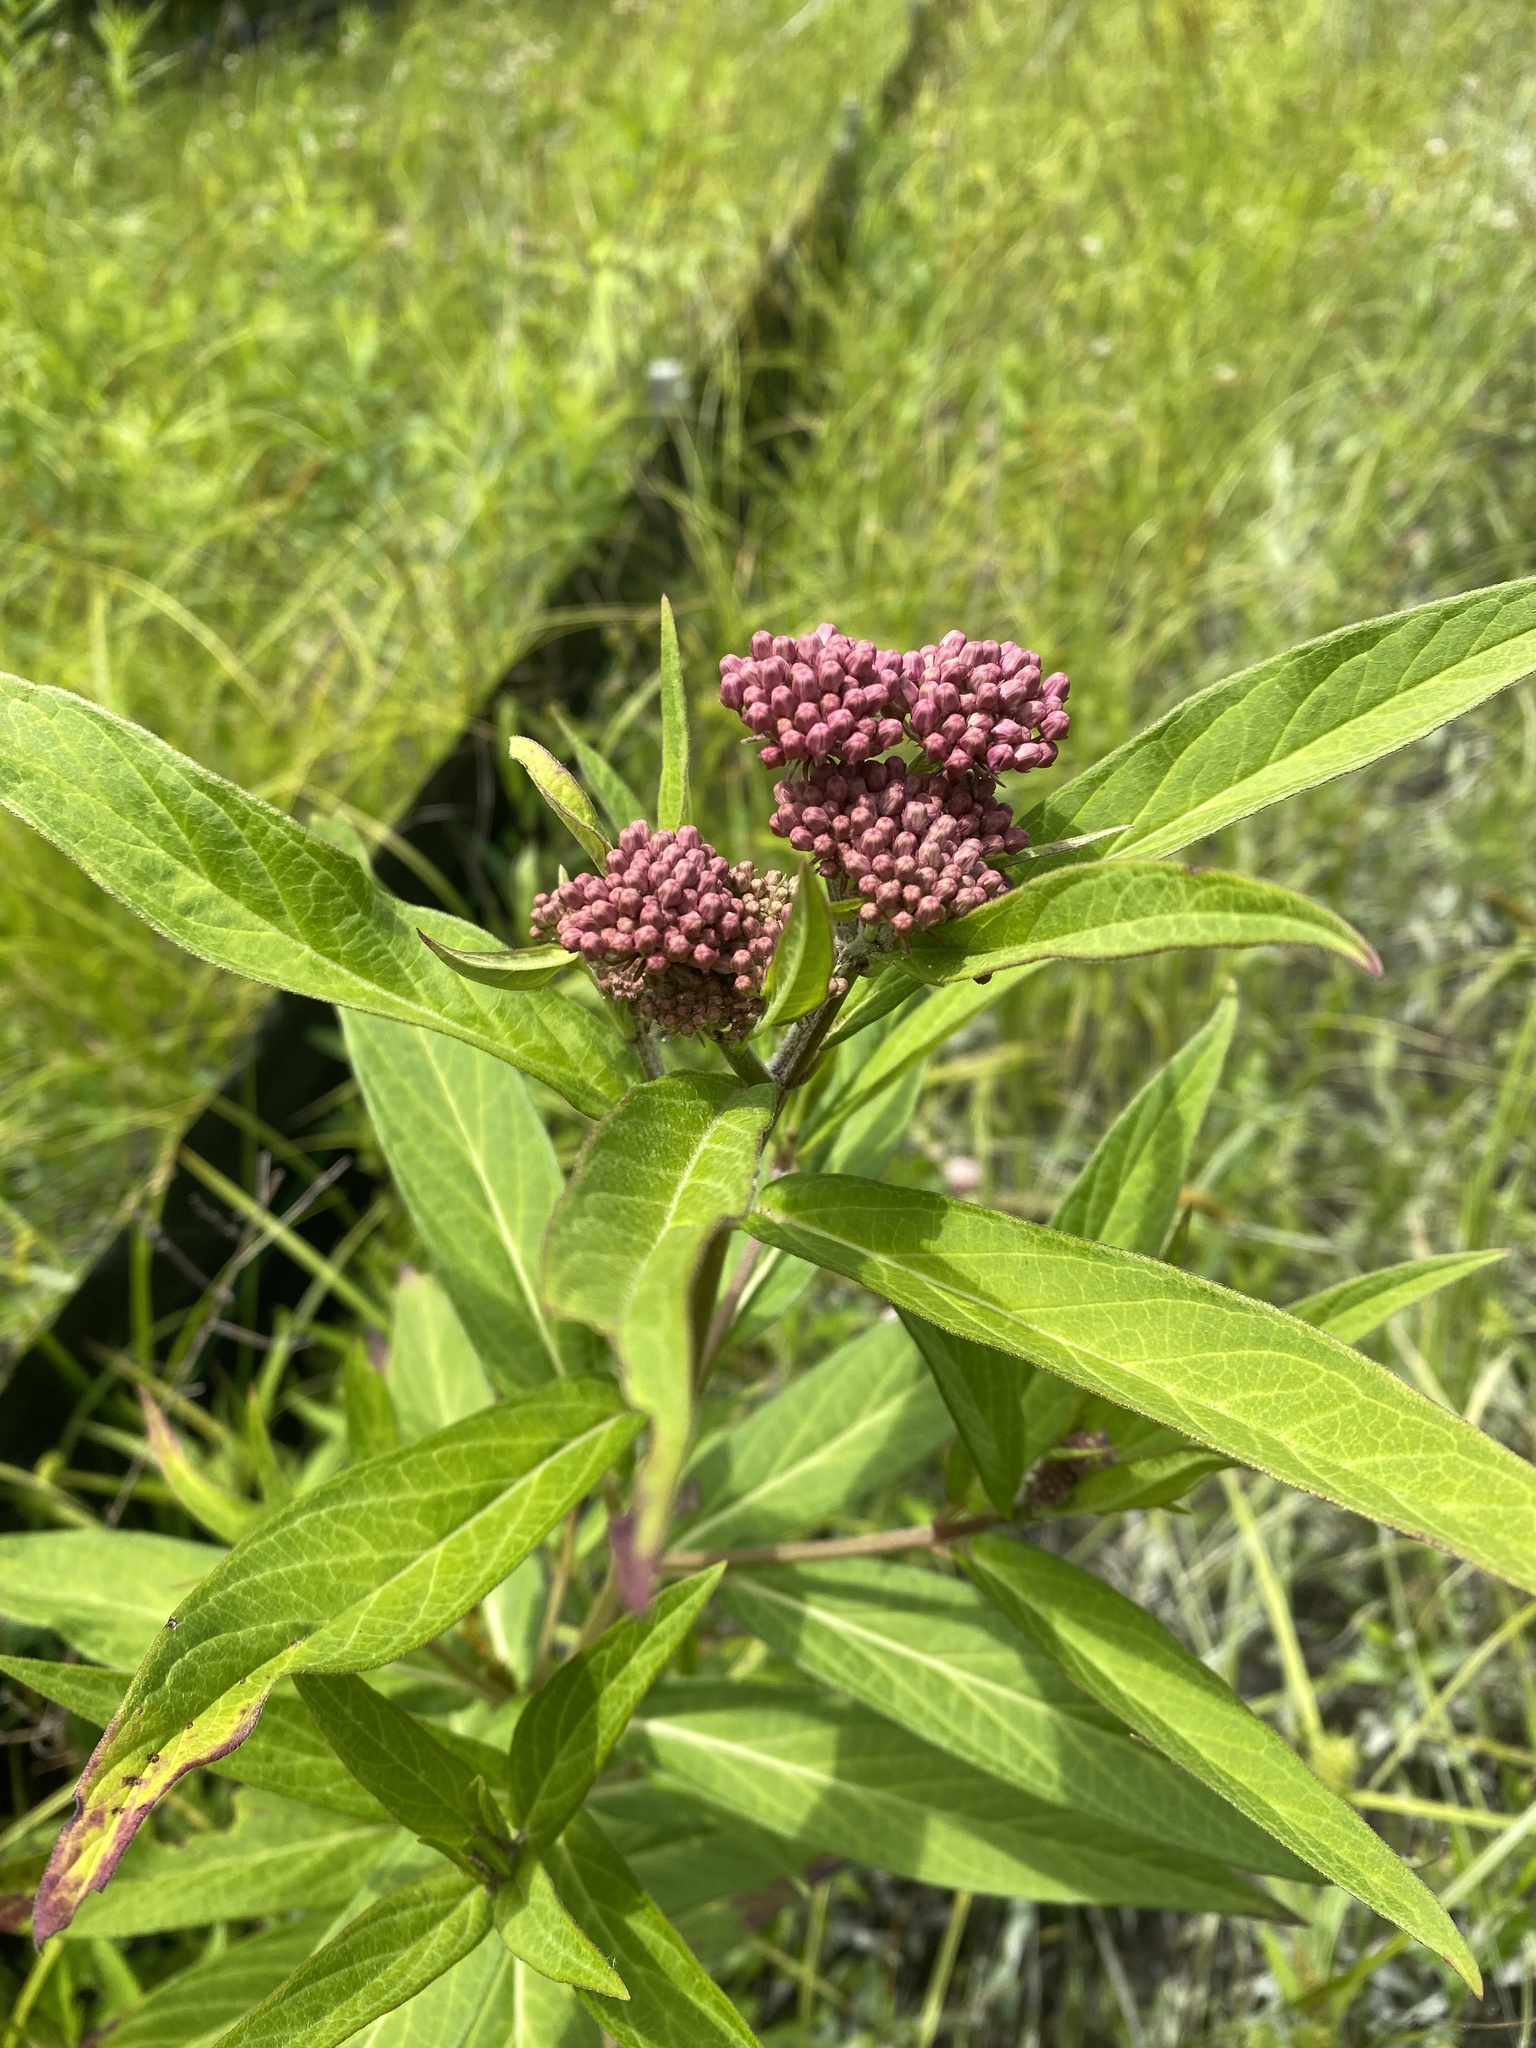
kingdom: Plantae
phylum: Tracheophyta
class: Magnoliopsida
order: Gentianales
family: Apocynaceae
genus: Asclepias
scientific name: Asclepias incarnata
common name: Swamp milkweed
